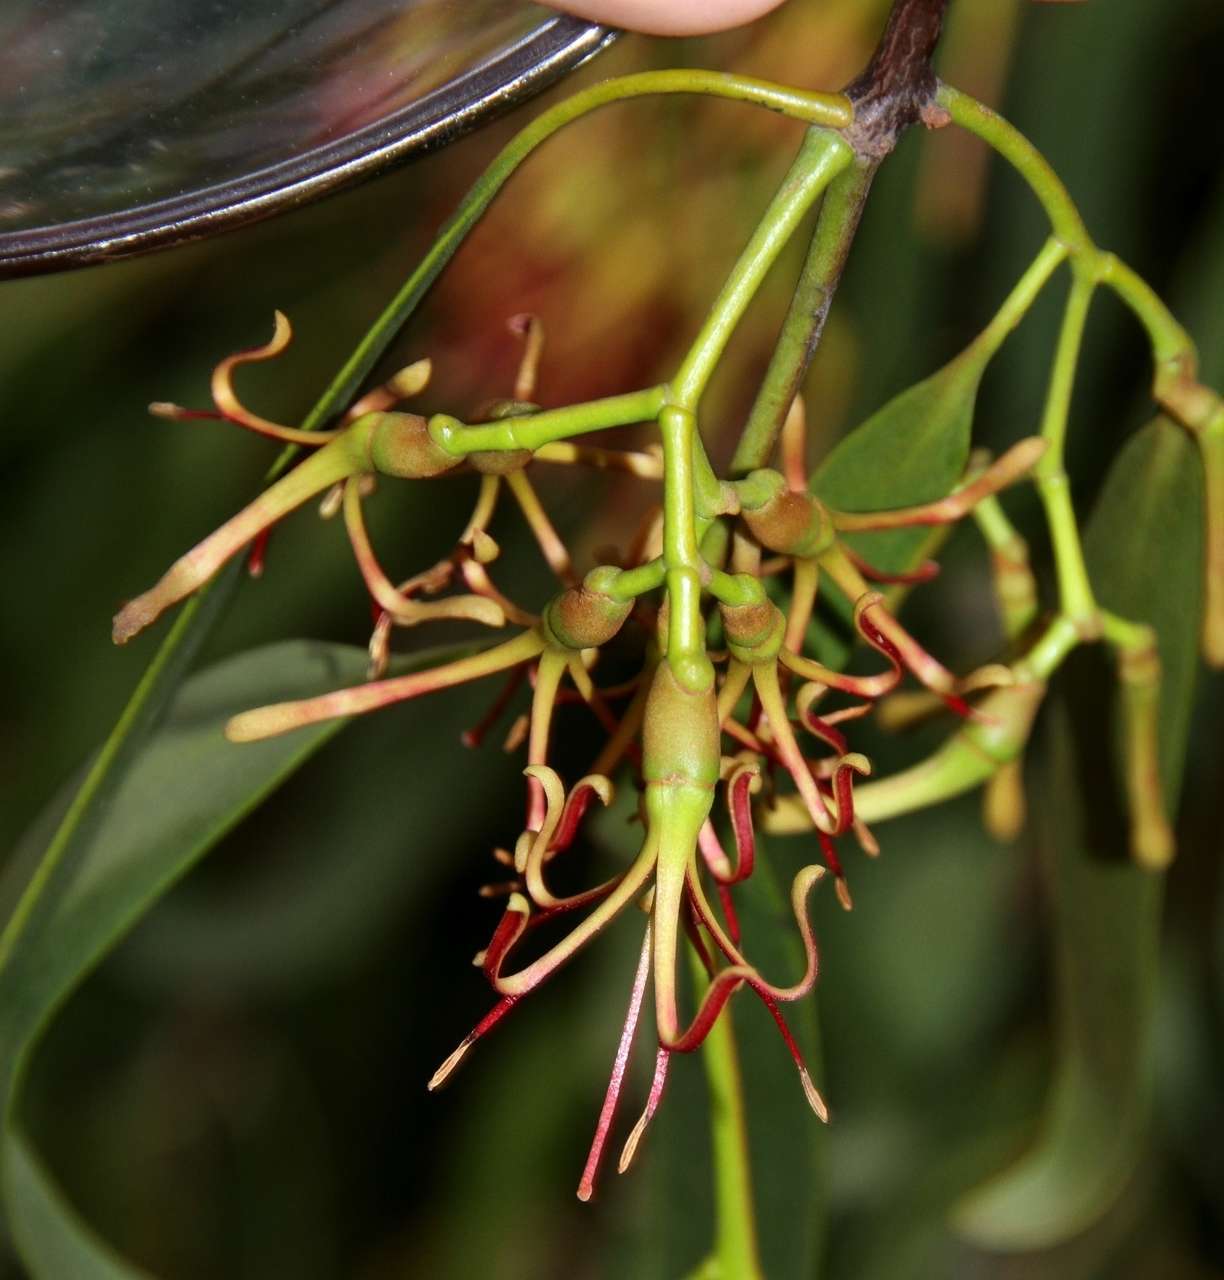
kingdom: Plantae
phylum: Tracheophyta
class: Magnoliopsida
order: Santalales
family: Loranthaceae
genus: Amyema
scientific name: Amyema miquelii
